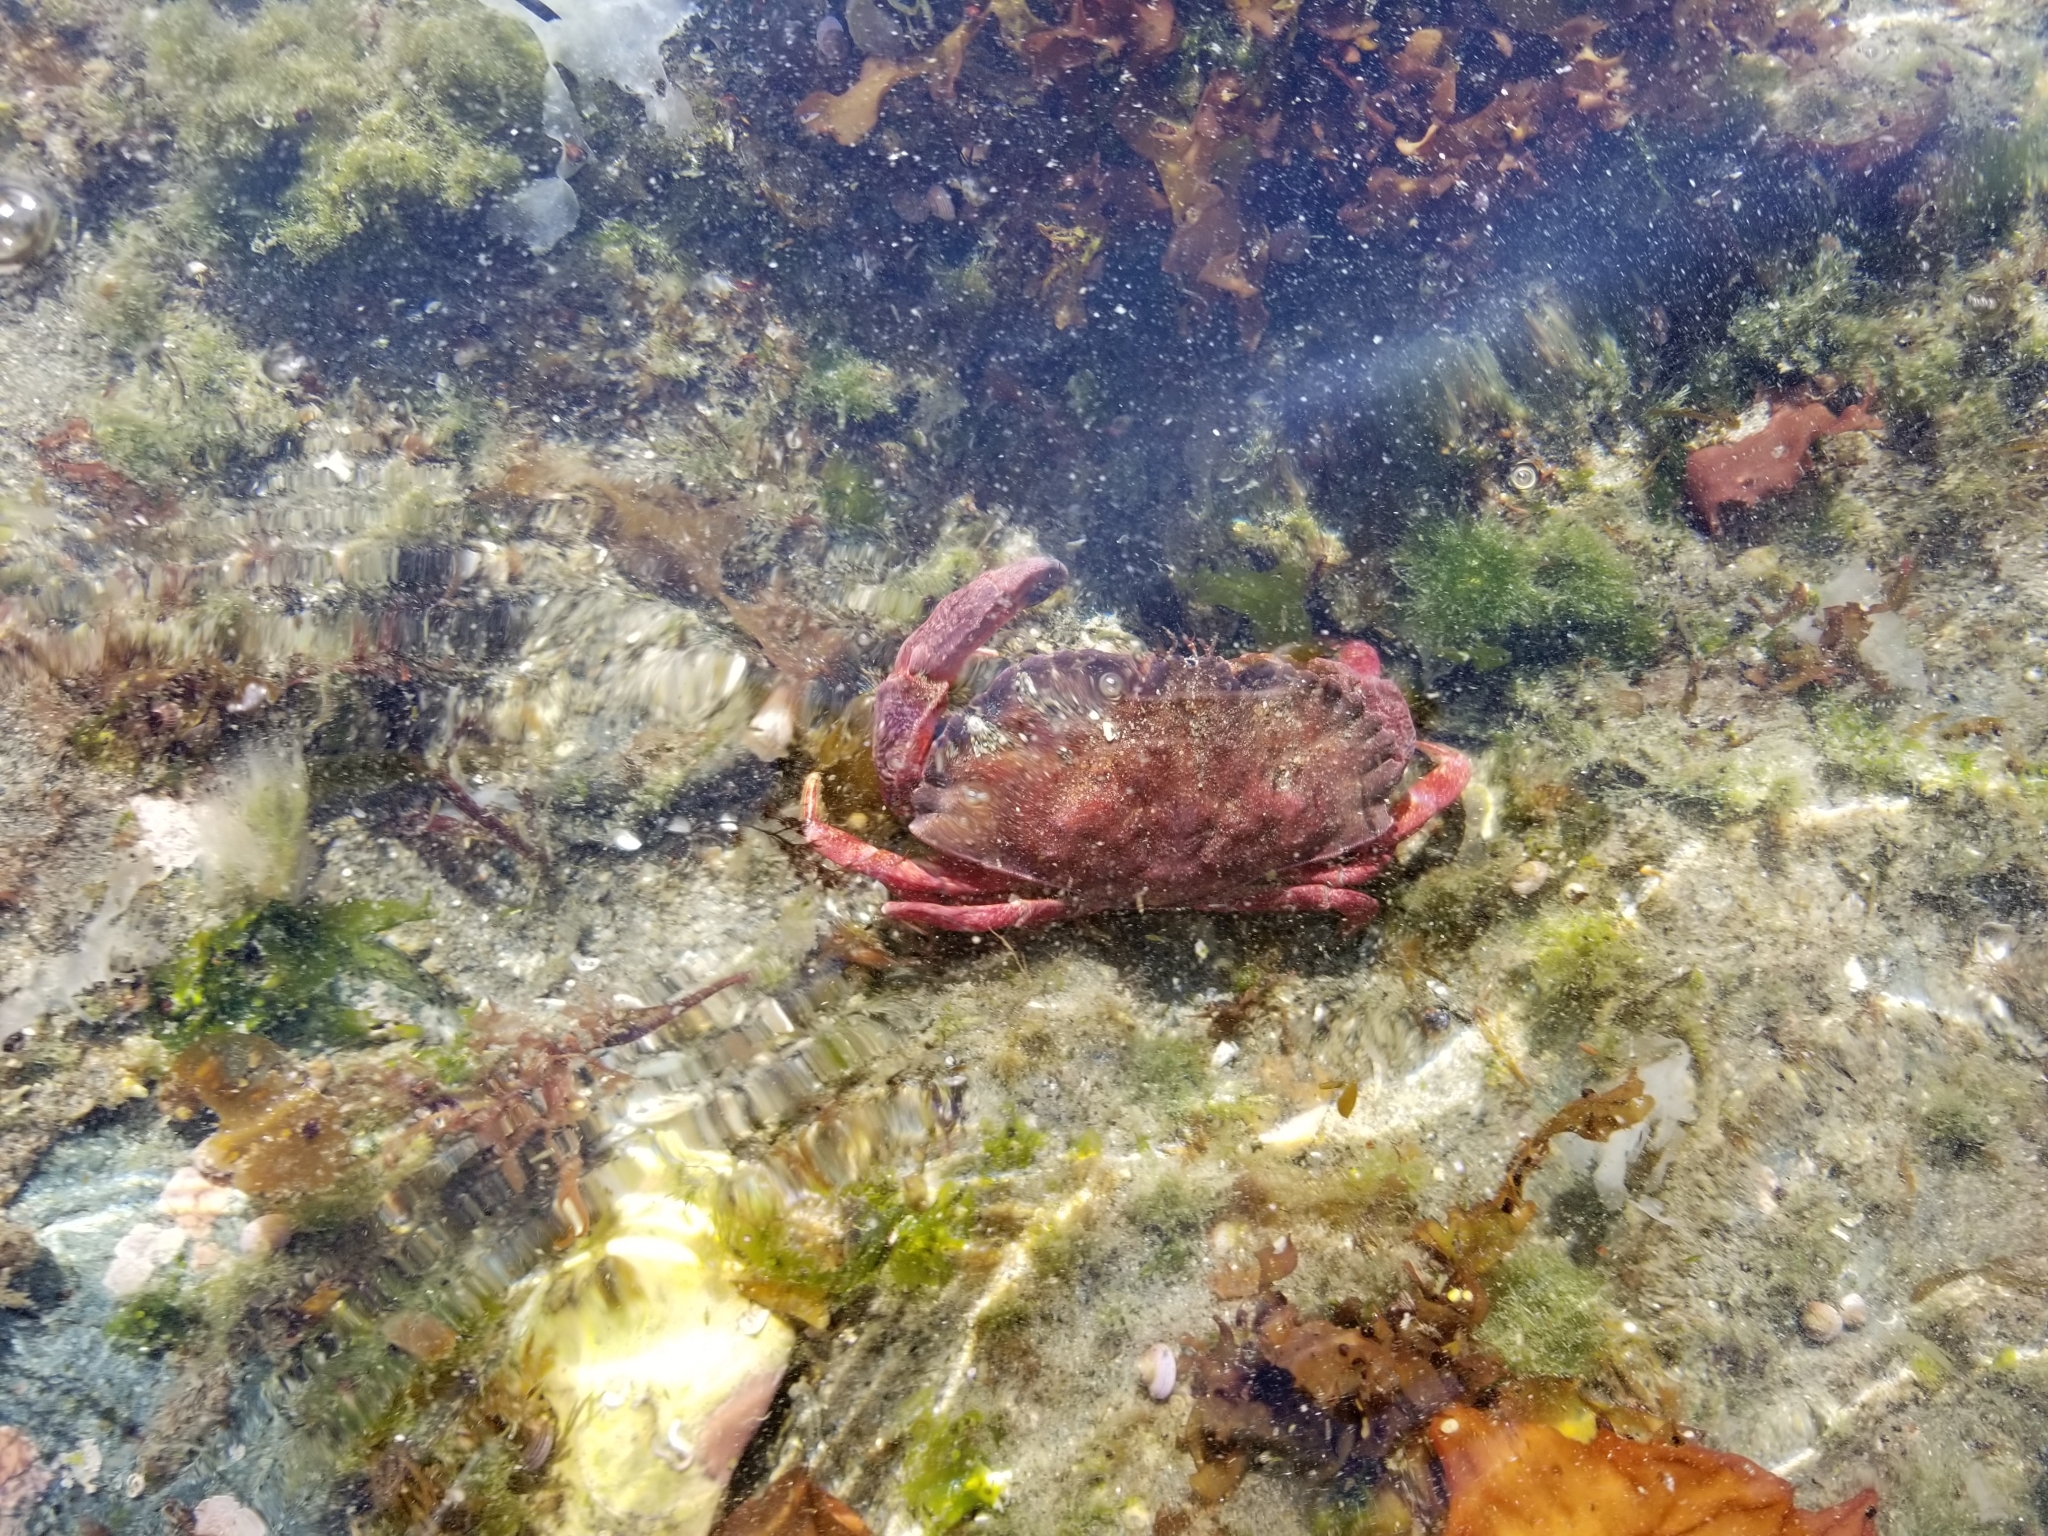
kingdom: Animalia
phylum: Arthropoda
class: Malacostraca
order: Decapoda
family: Cancridae
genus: Cancer
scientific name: Cancer productus
